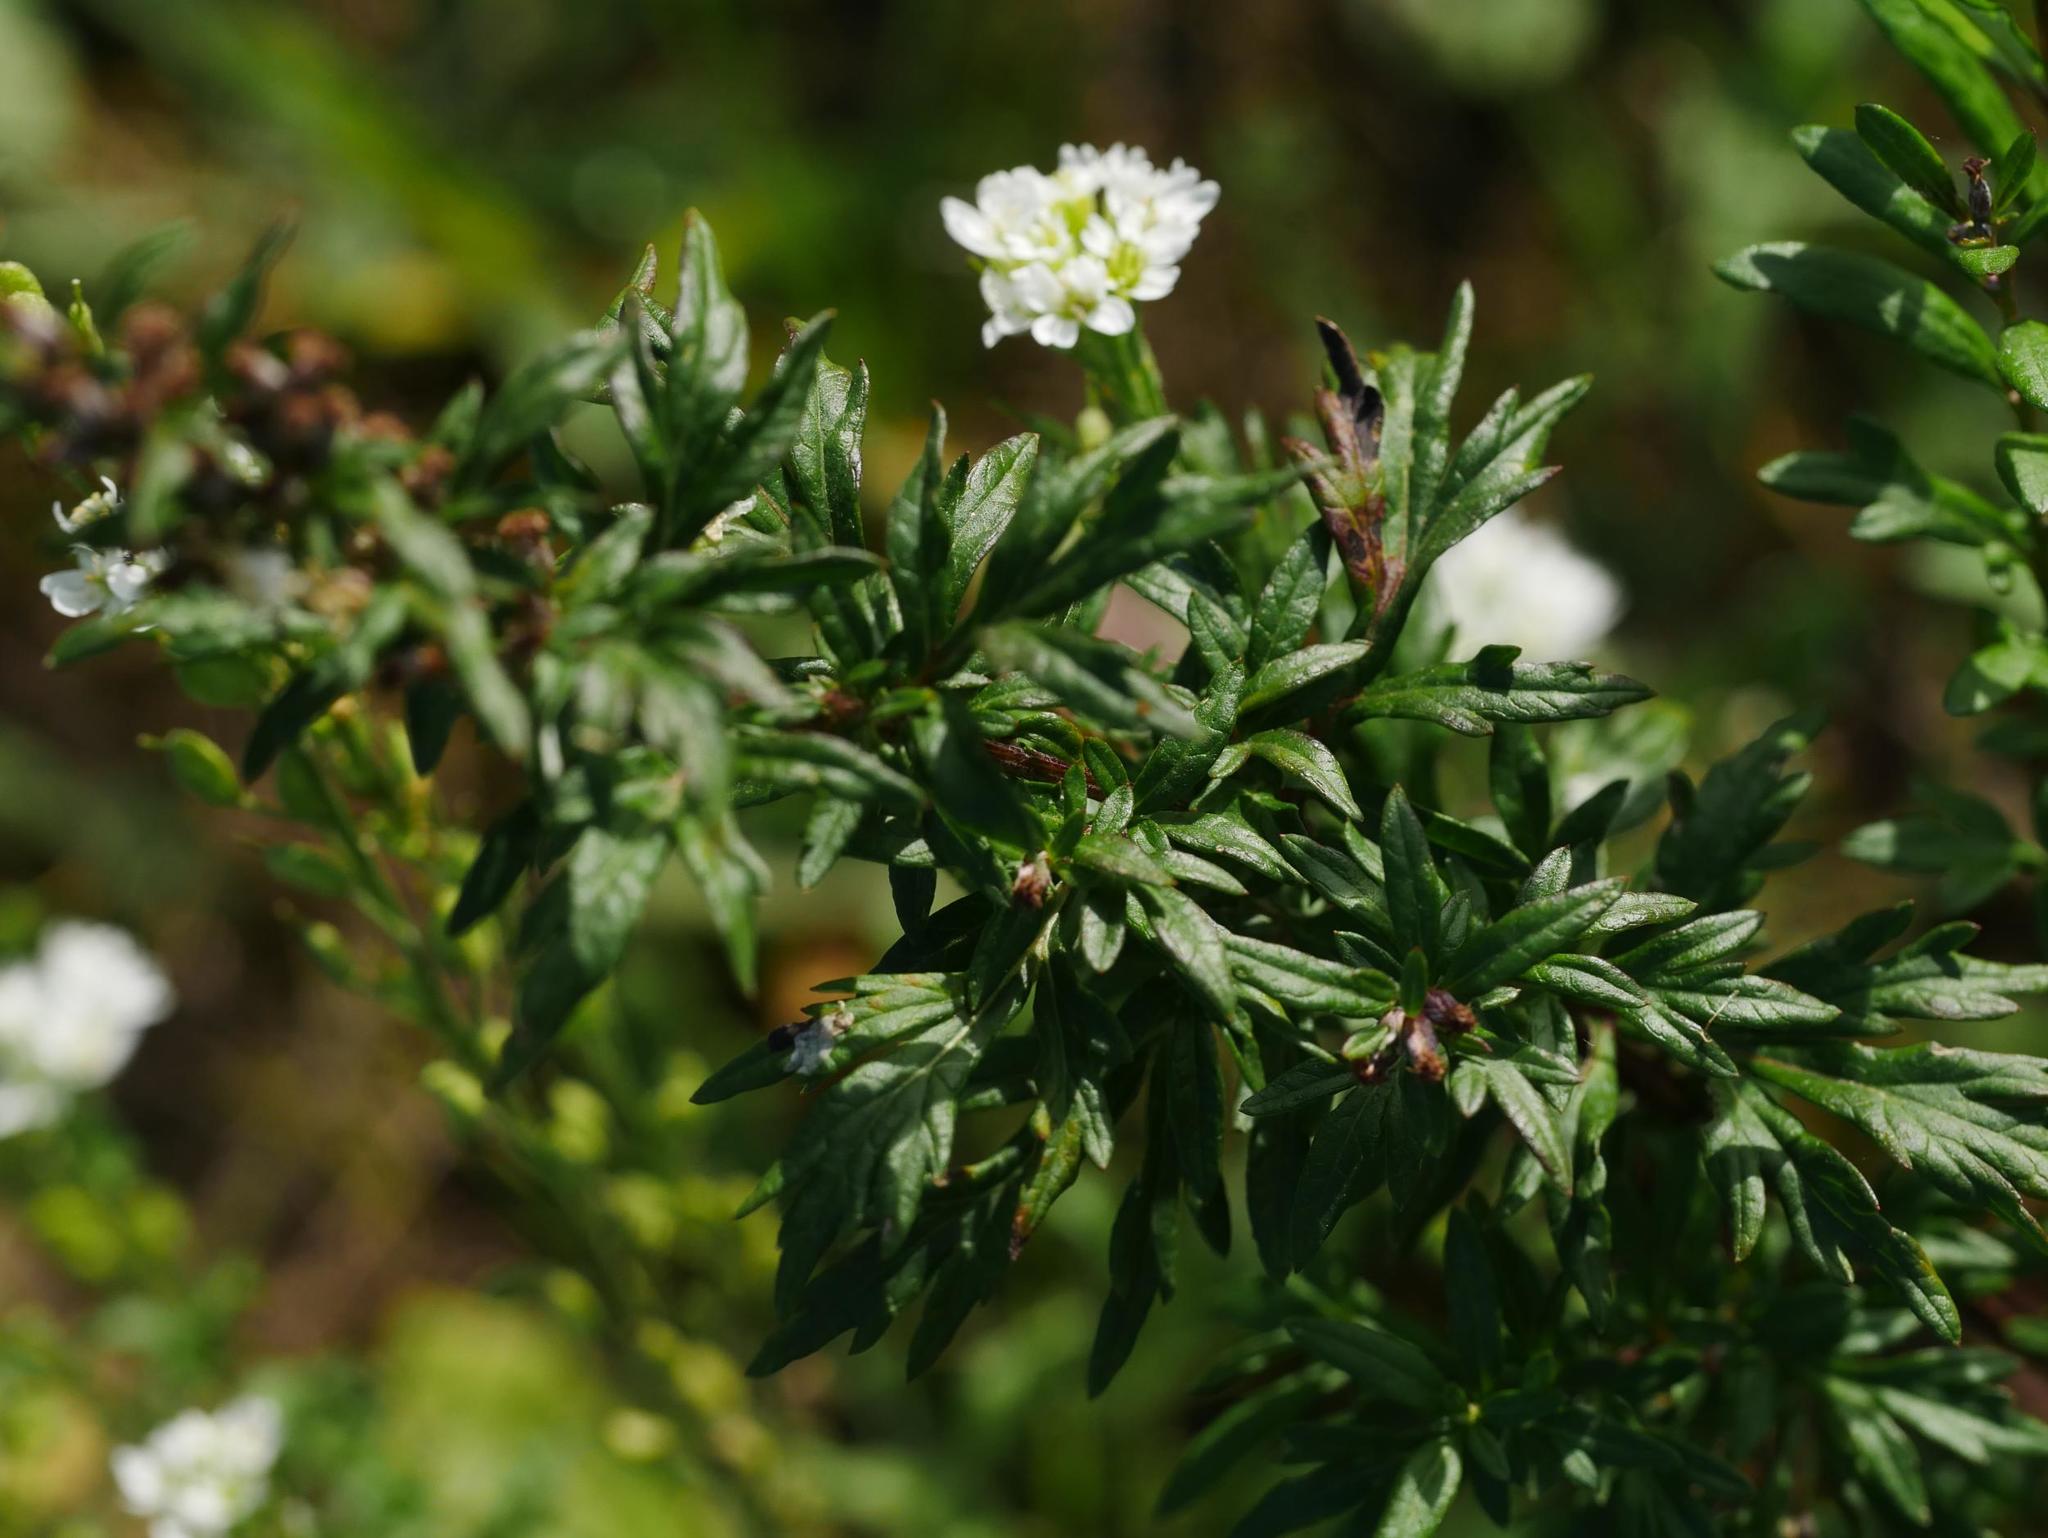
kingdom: Plantae
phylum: Tracheophyta
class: Magnoliopsida
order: Asterales
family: Asteraceae
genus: Artemisia
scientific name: Artemisia vulgaris
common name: Mugwort
